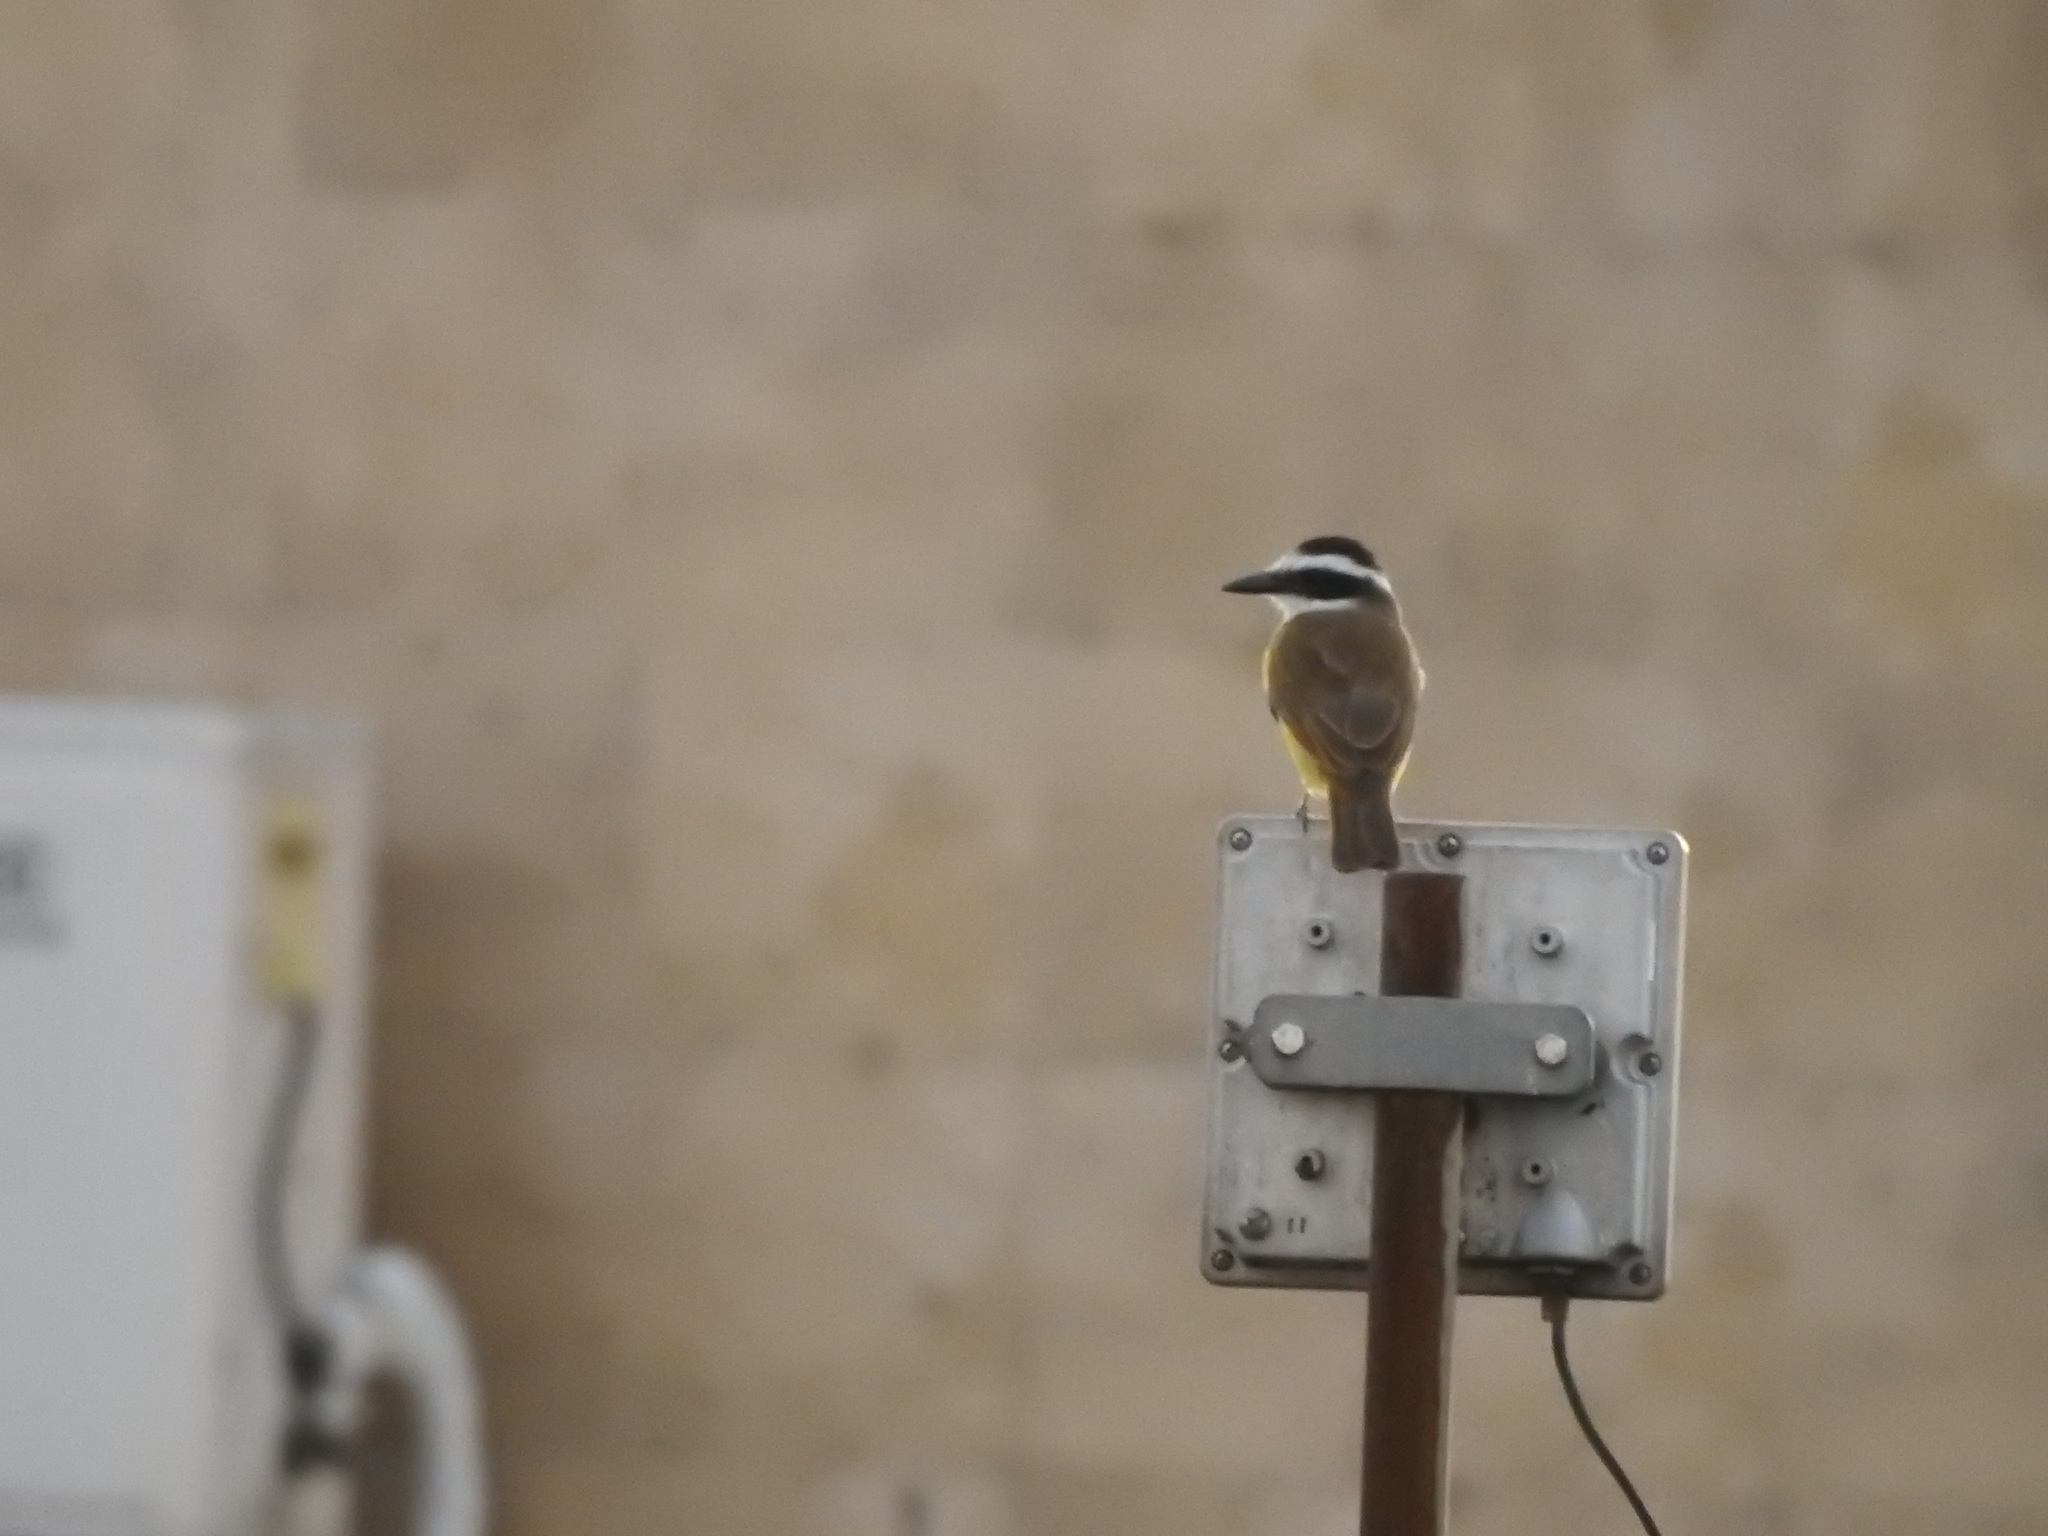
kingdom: Animalia
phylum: Chordata
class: Aves
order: Passeriformes
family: Tyrannidae
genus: Pitangus
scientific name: Pitangus sulphuratus
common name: Great kiskadee
